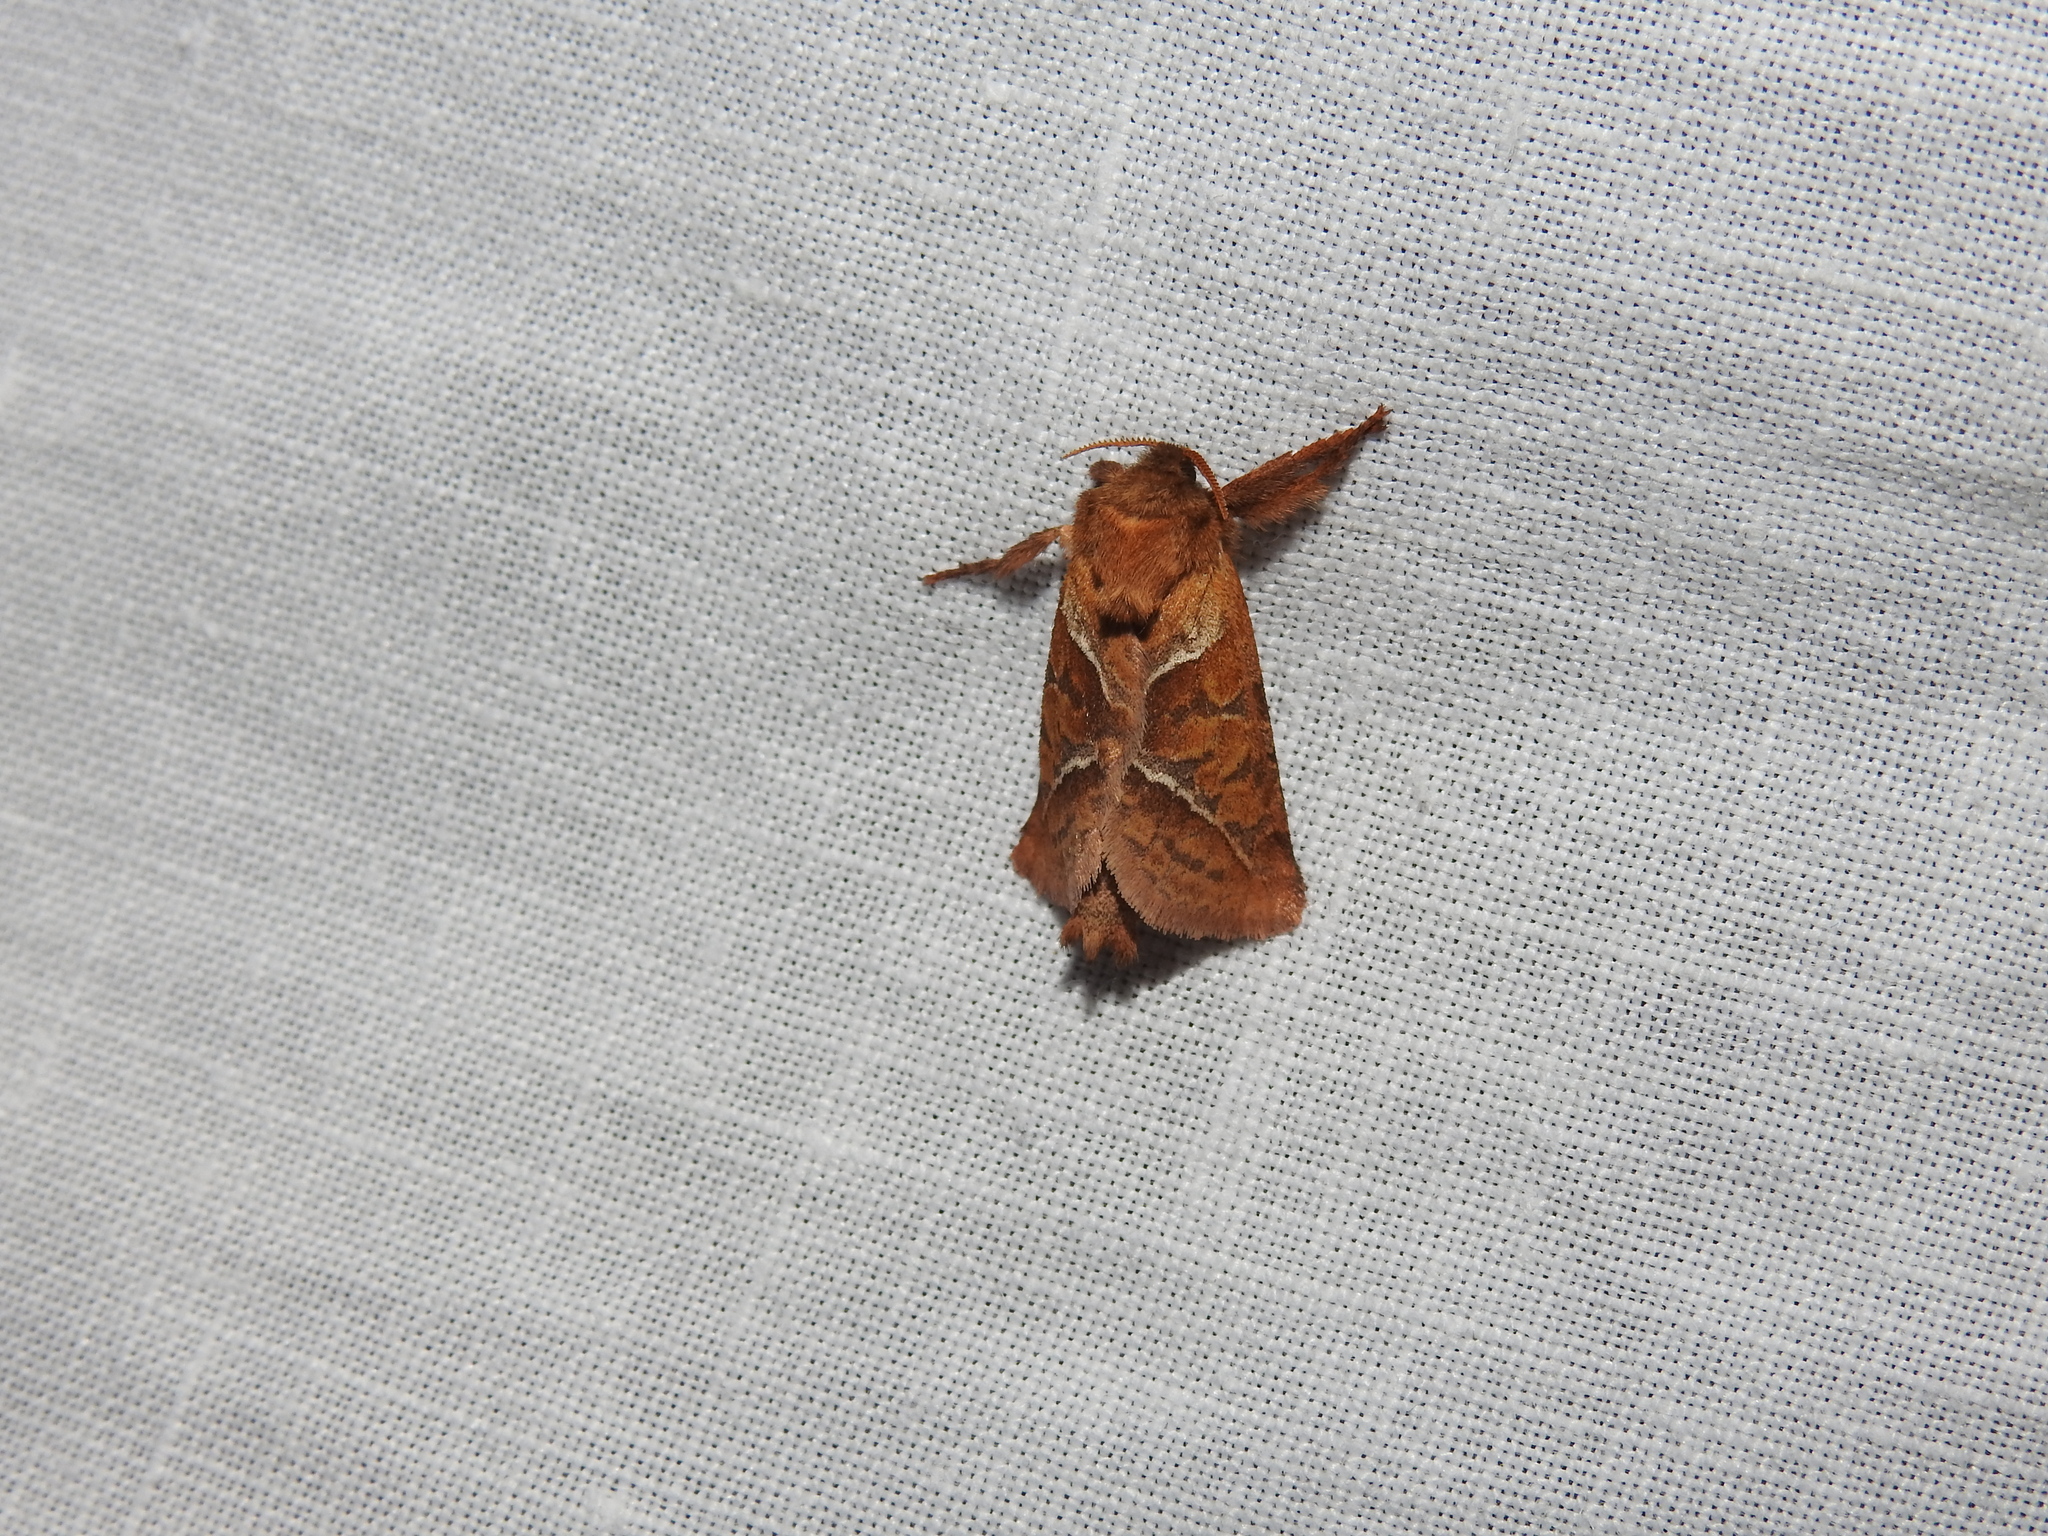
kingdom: Animalia
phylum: Arthropoda
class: Insecta
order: Lepidoptera
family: Hepialidae
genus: Triodia
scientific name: Triodia sylvina
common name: Orange swift
